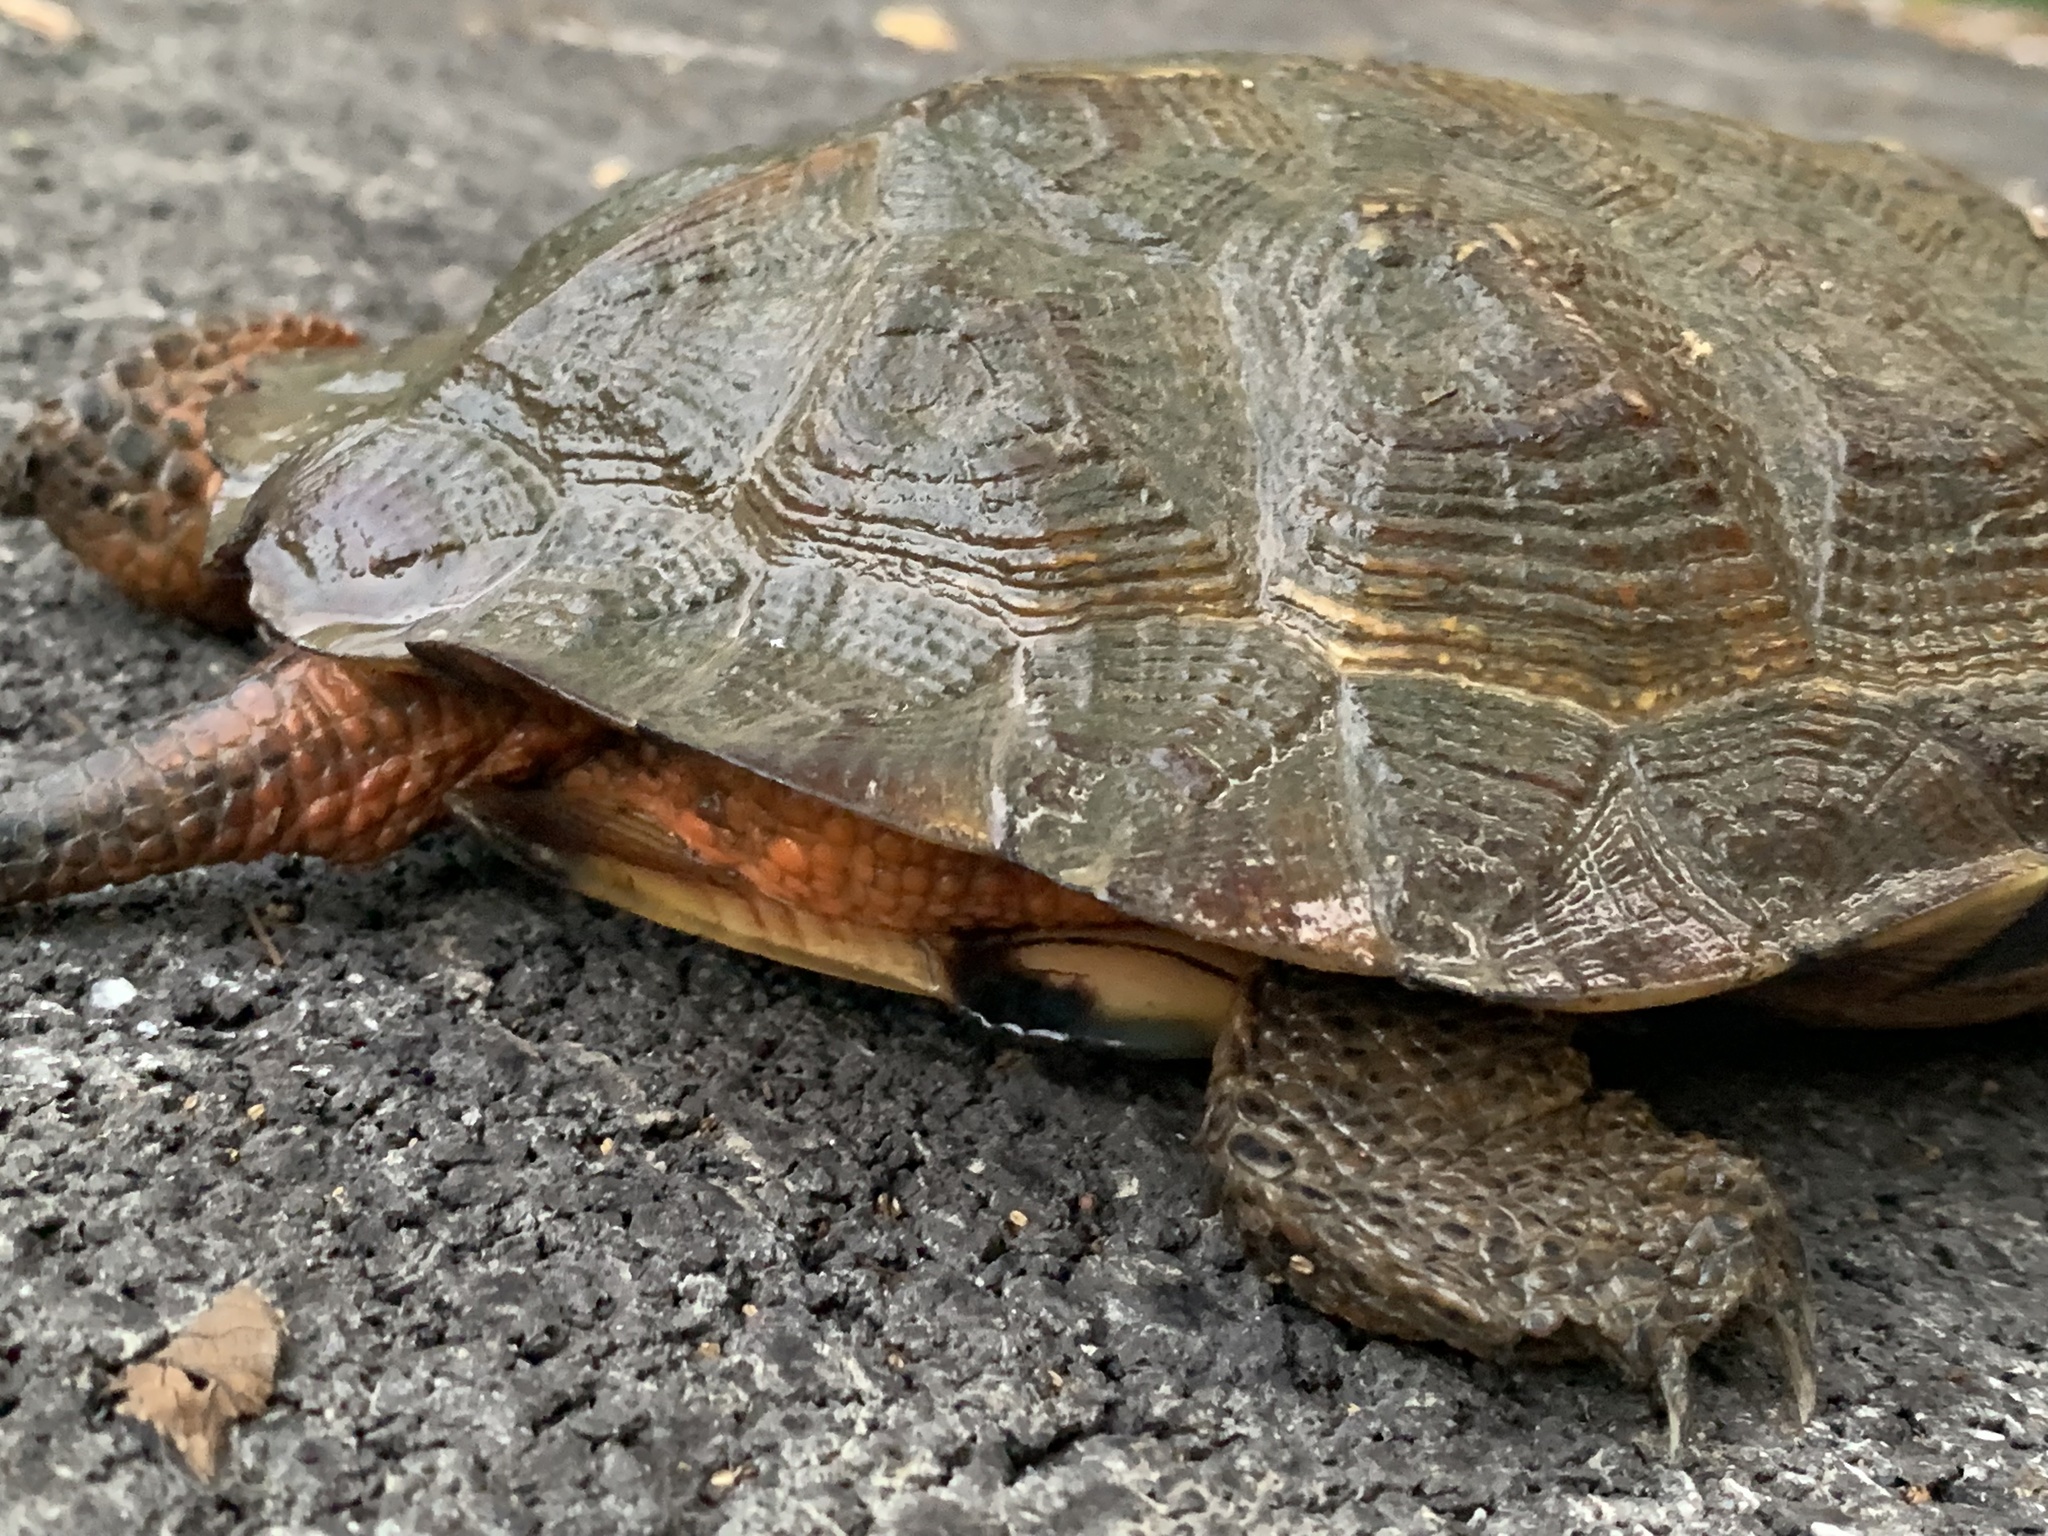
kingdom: Animalia
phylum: Chordata
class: Testudines
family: Emydidae
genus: Glyptemys
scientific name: Glyptemys insculpta
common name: Wood turtle
